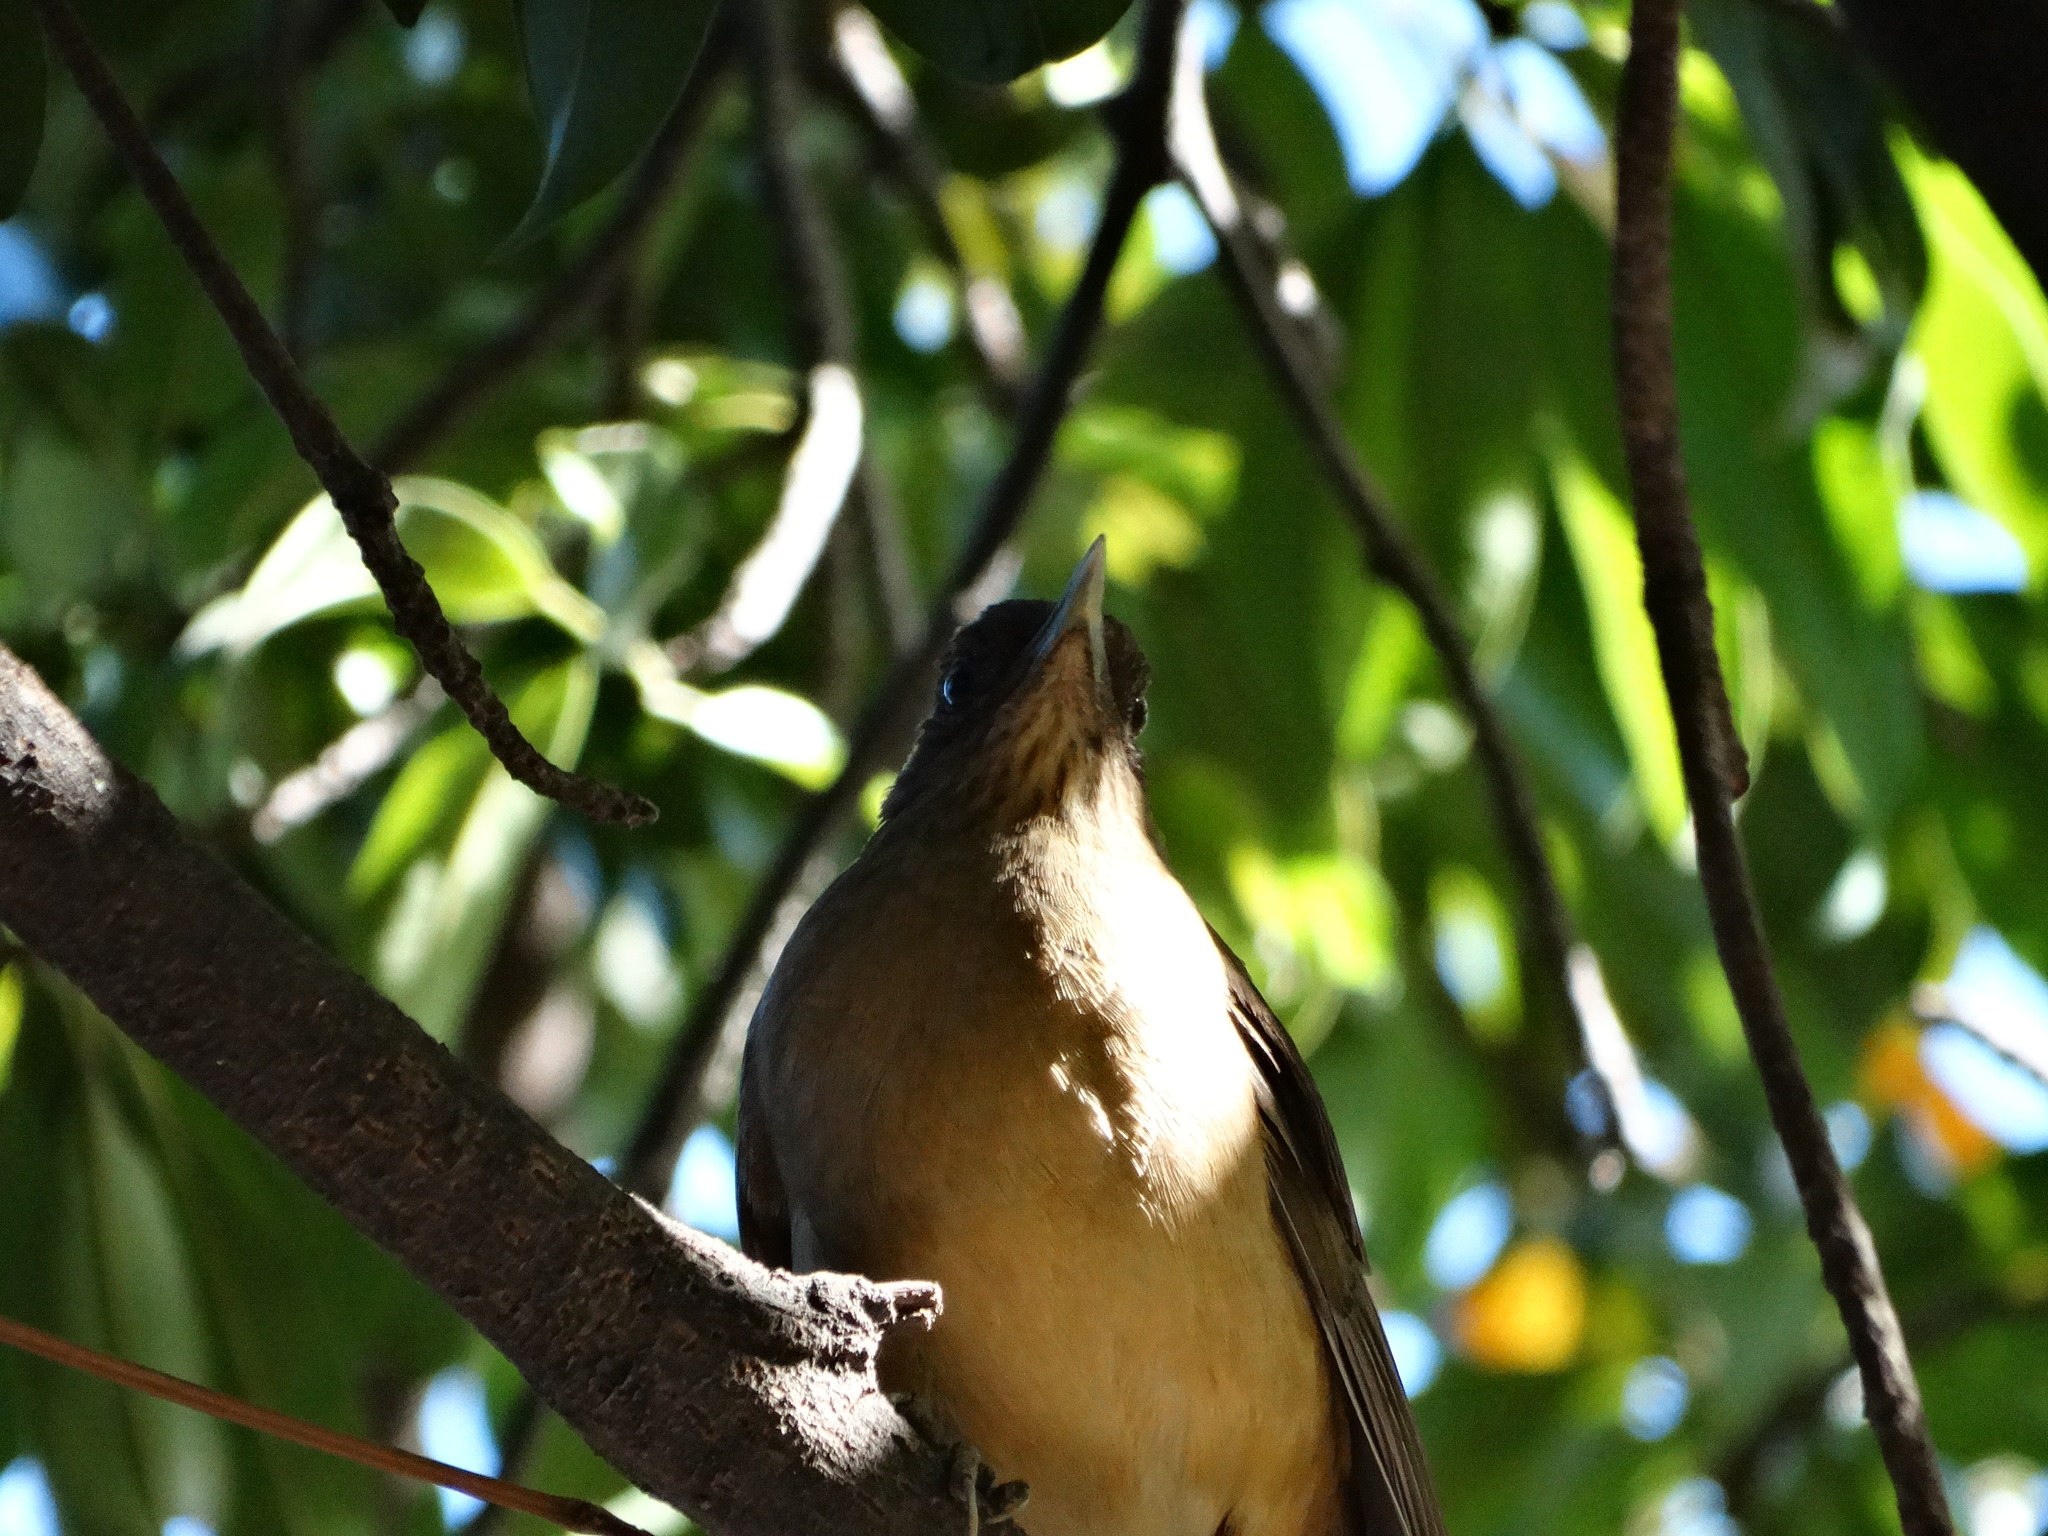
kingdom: Animalia
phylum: Chordata
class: Aves
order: Passeriformes
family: Turdidae
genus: Turdus
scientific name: Turdus grayi
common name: Clay-colored thrush
